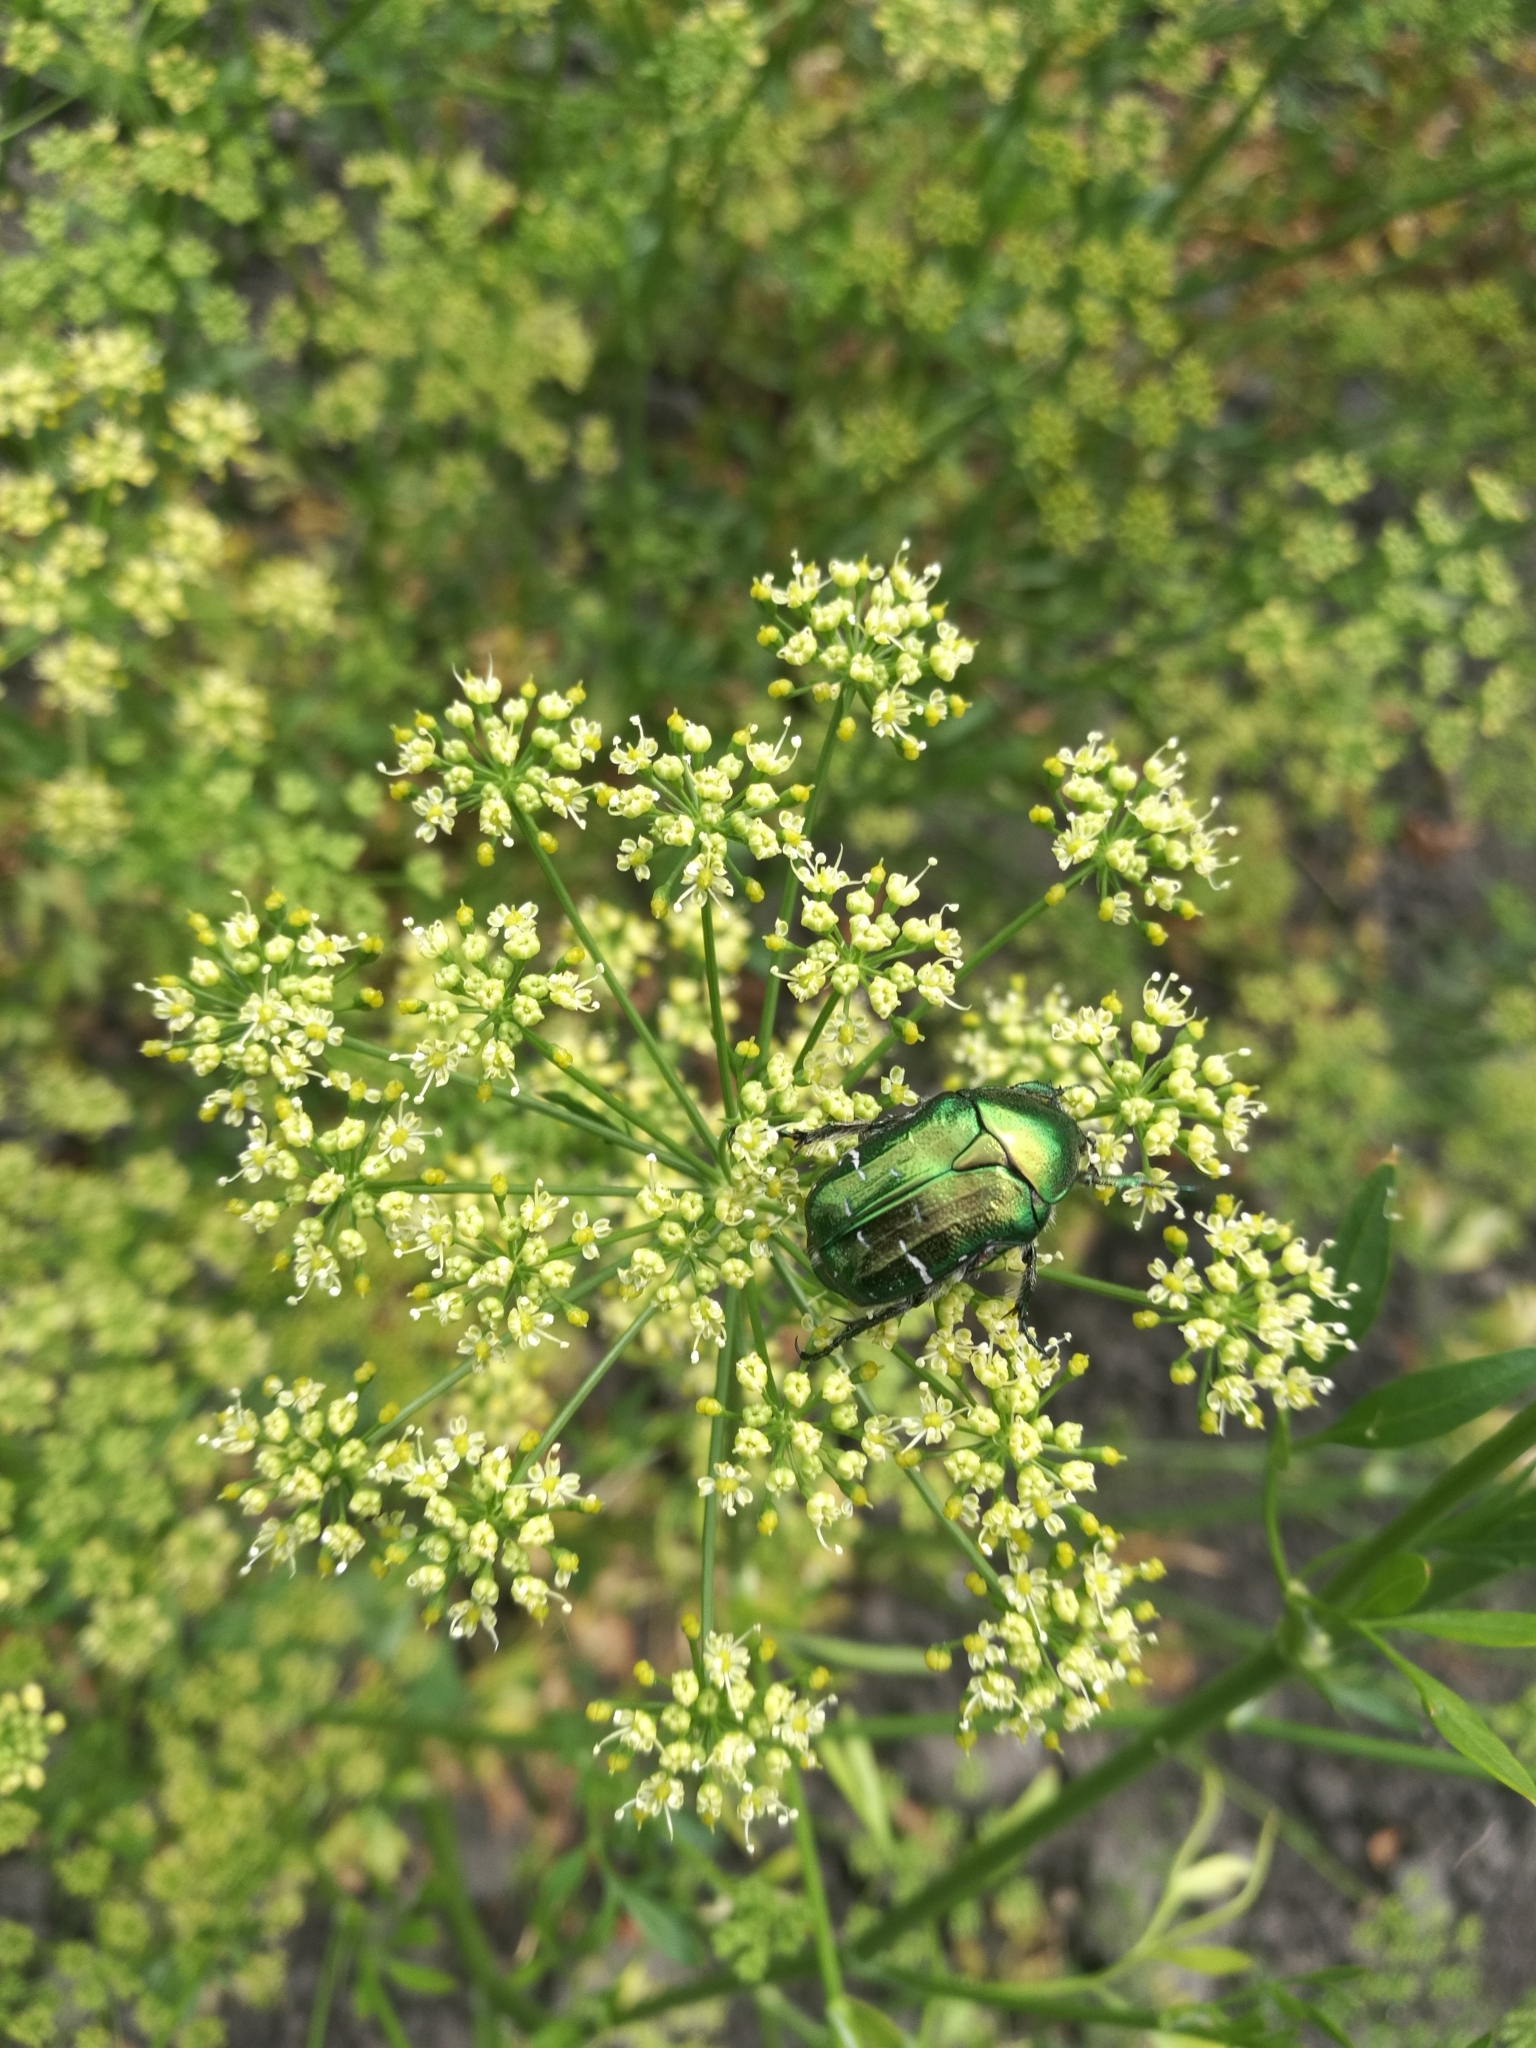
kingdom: Animalia
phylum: Arthropoda
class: Insecta
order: Coleoptera
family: Scarabaeidae
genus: Cetonia
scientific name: Cetonia aurata
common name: Rose chafer
